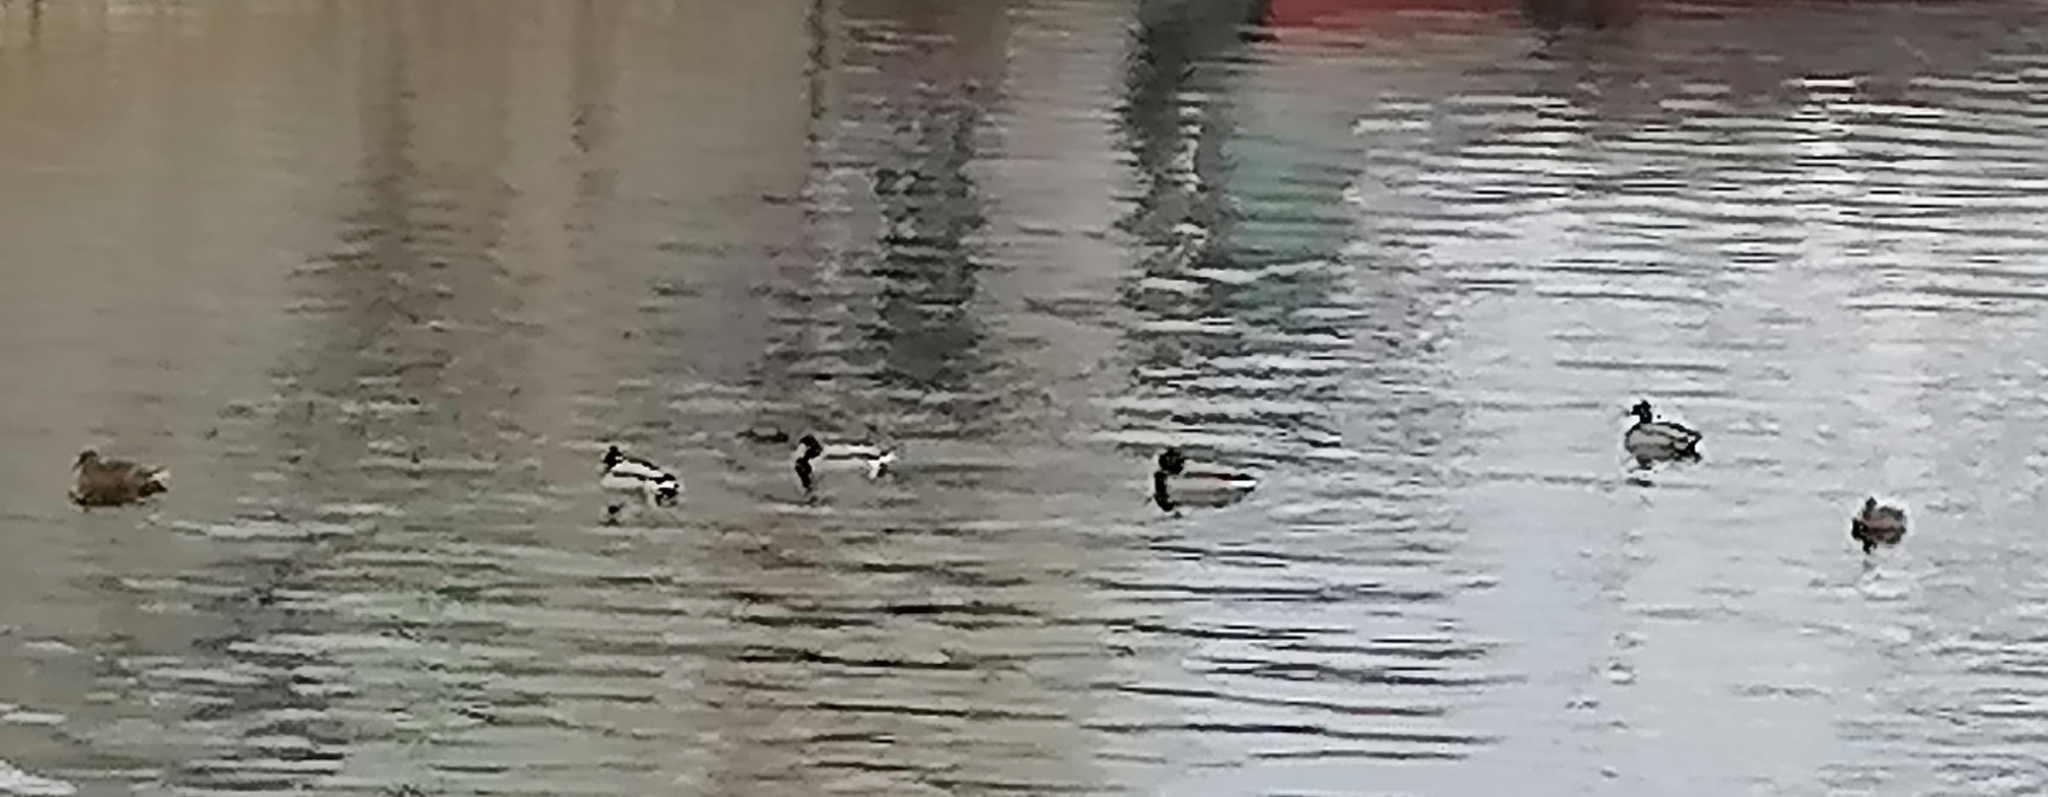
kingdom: Animalia
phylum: Chordata
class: Aves
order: Anseriformes
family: Anatidae
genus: Anas
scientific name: Anas platyrhynchos
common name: Mallard
